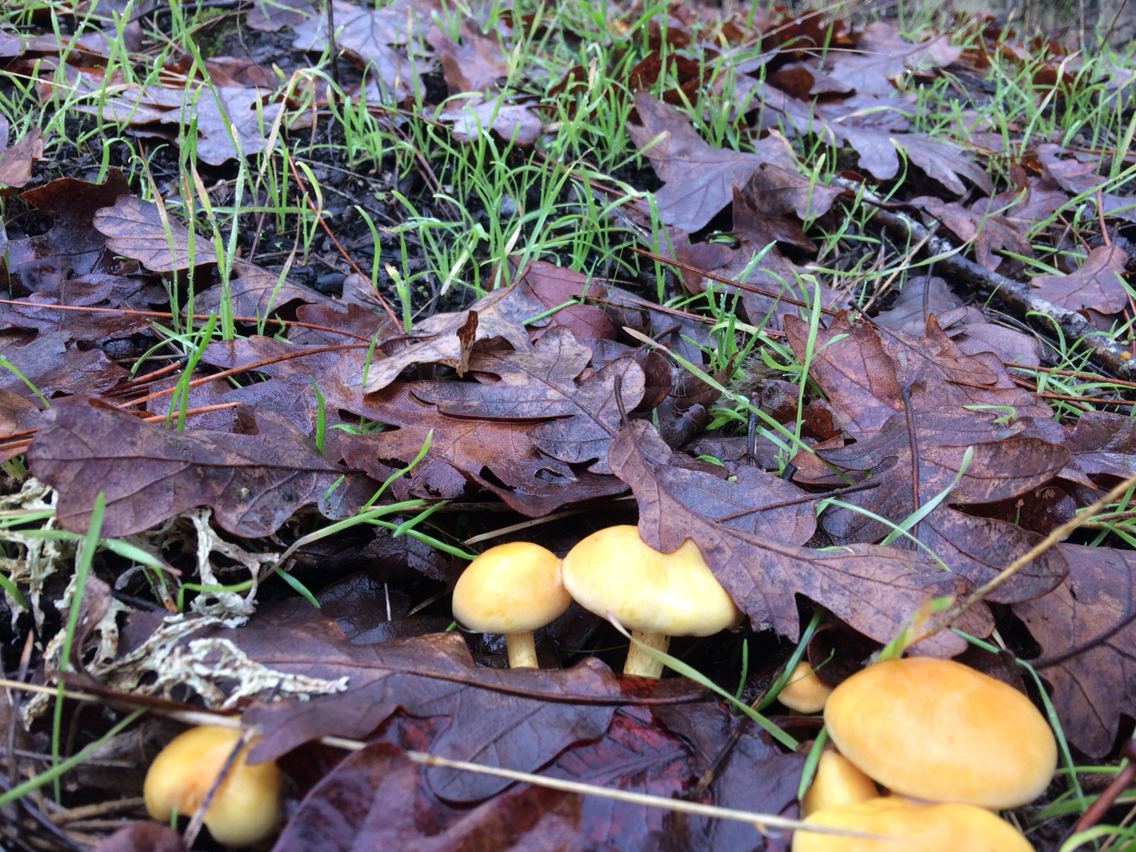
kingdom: Fungi
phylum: Basidiomycota
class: Agaricomycetes
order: Agaricales
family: Strophariaceae
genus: Hypholoma
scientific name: Hypholoma fasciculare
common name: Sulphur tuft
